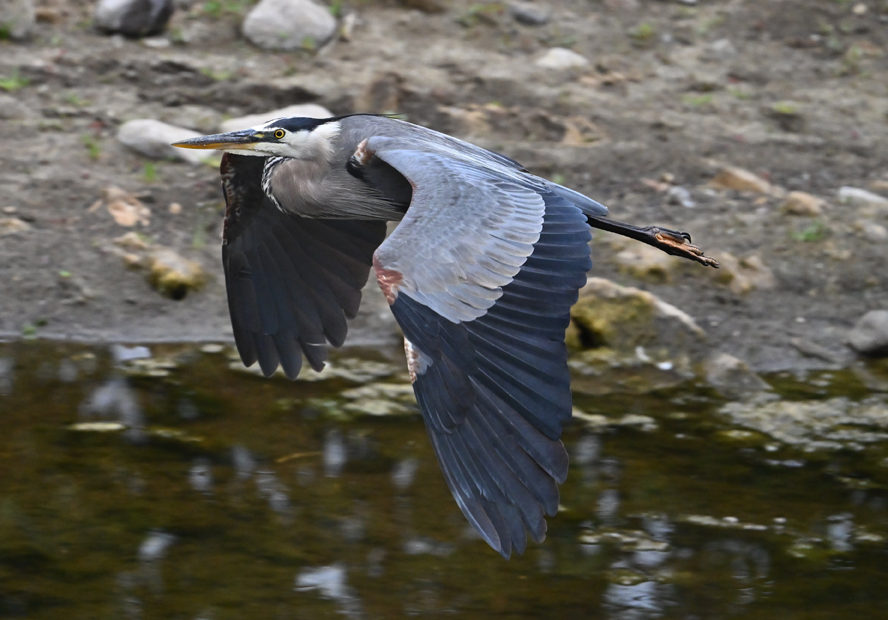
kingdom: Animalia
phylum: Chordata
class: Aves
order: Pelecaniformes
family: Ardeidae
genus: Ardea
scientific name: Ardea herodias
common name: Great blue heron
